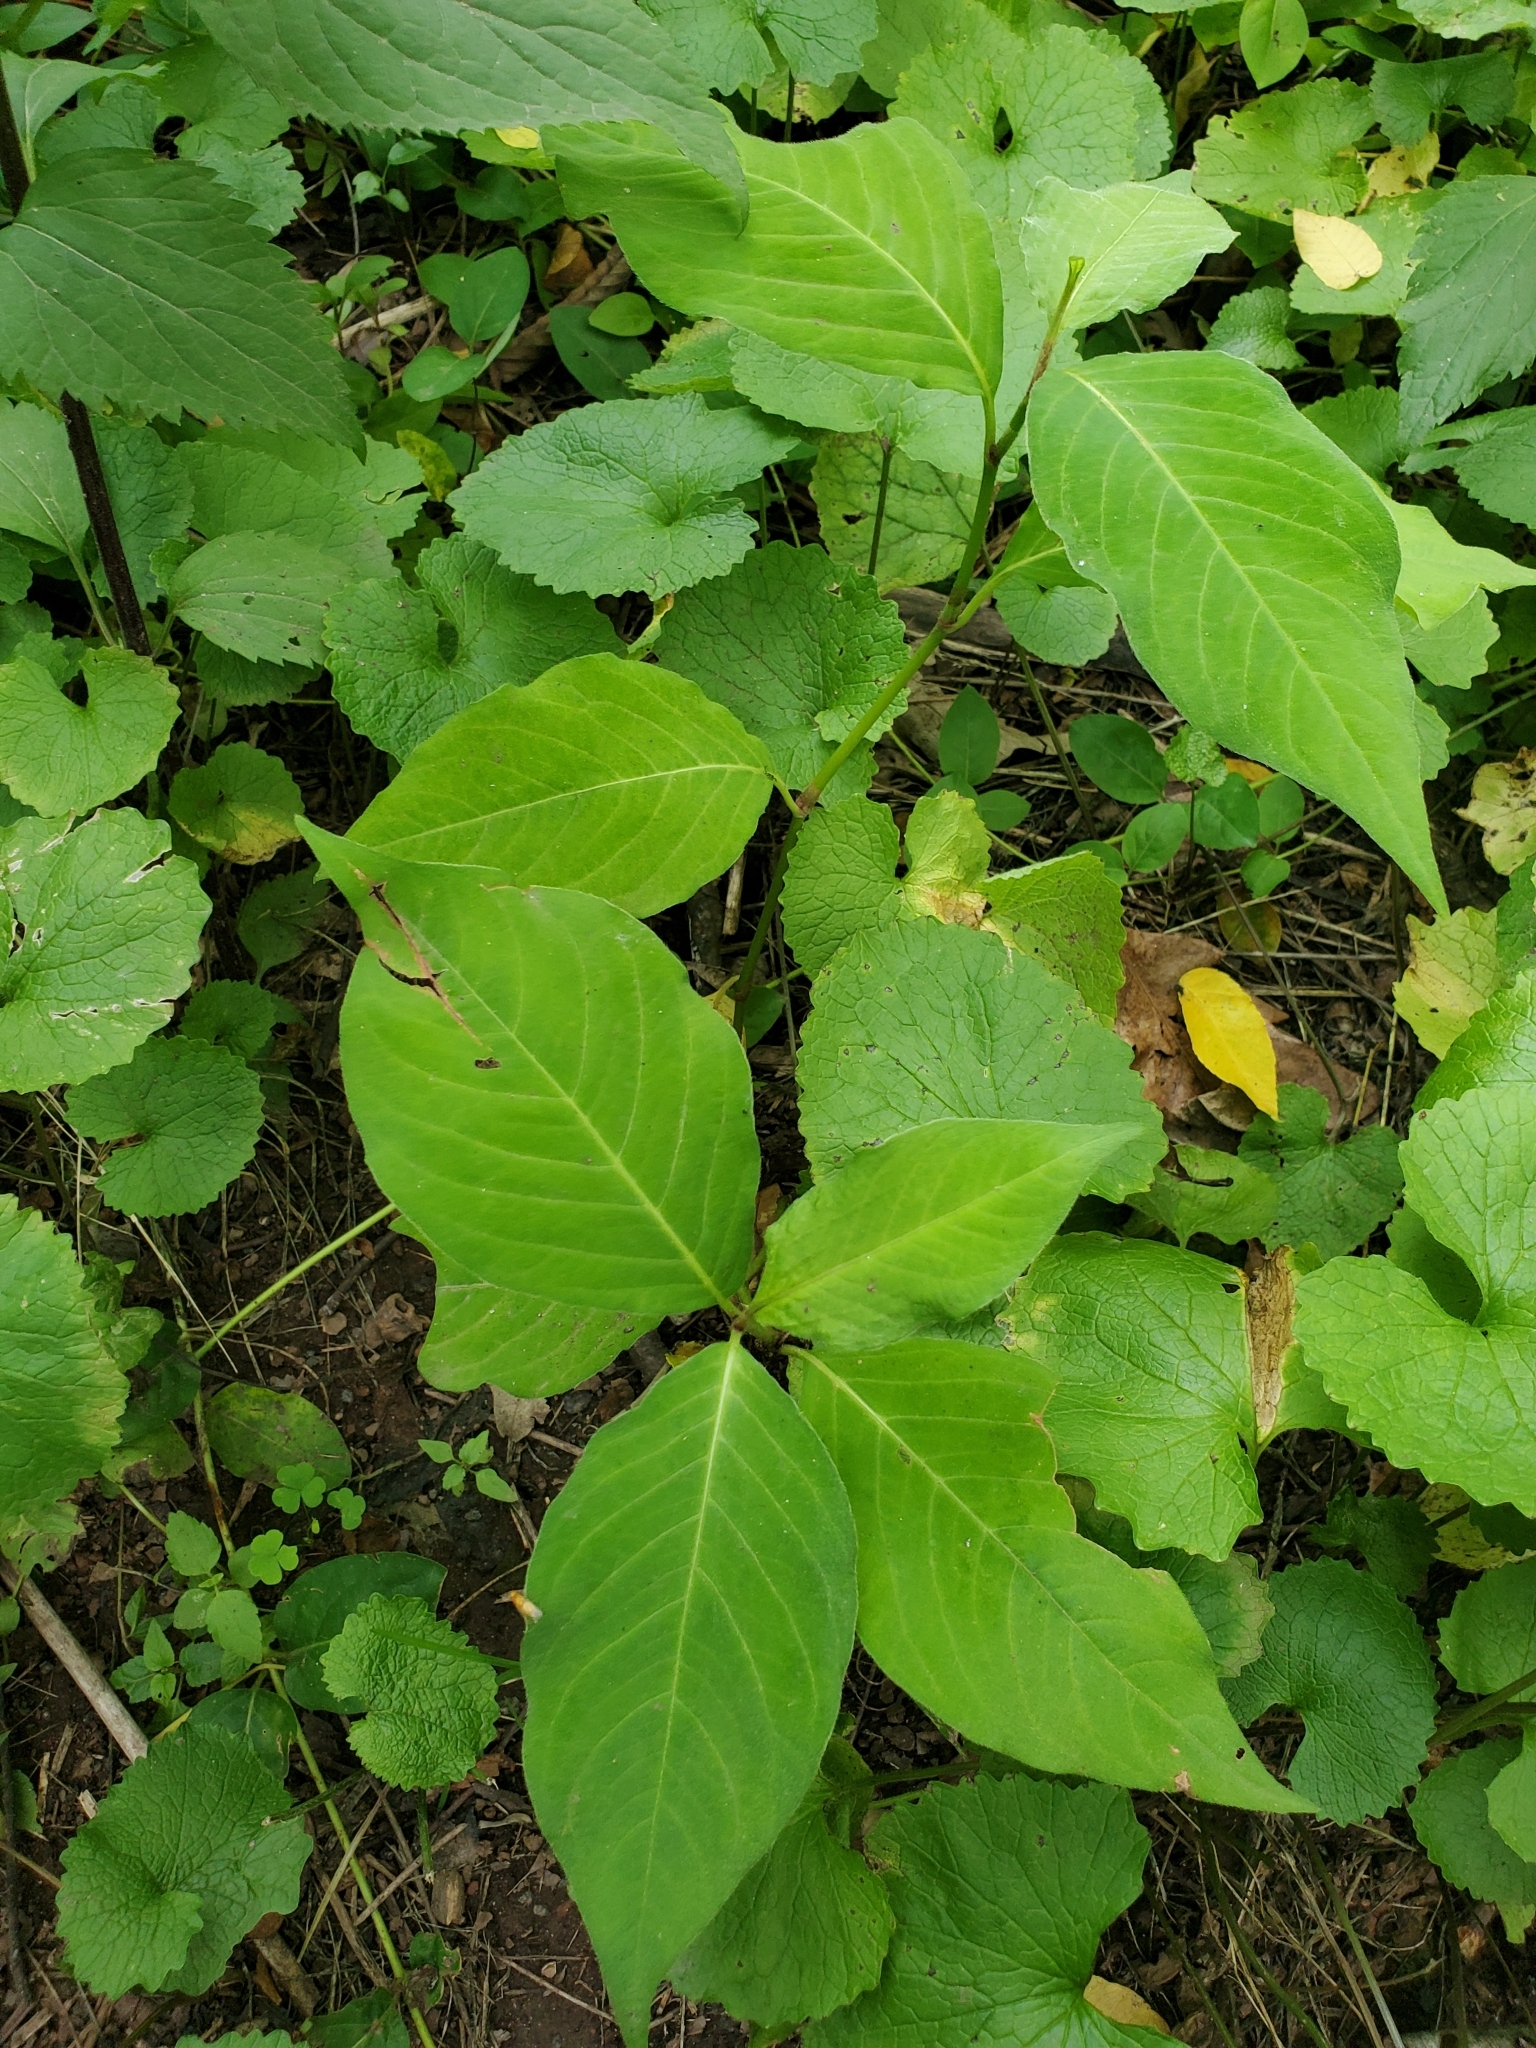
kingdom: Plantae
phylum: Tracheophyta
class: Magnoliopsida
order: Caryophyllales
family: Polygonaceae
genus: Persicaria
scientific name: Persicaria virginiana
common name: Jumpseed
